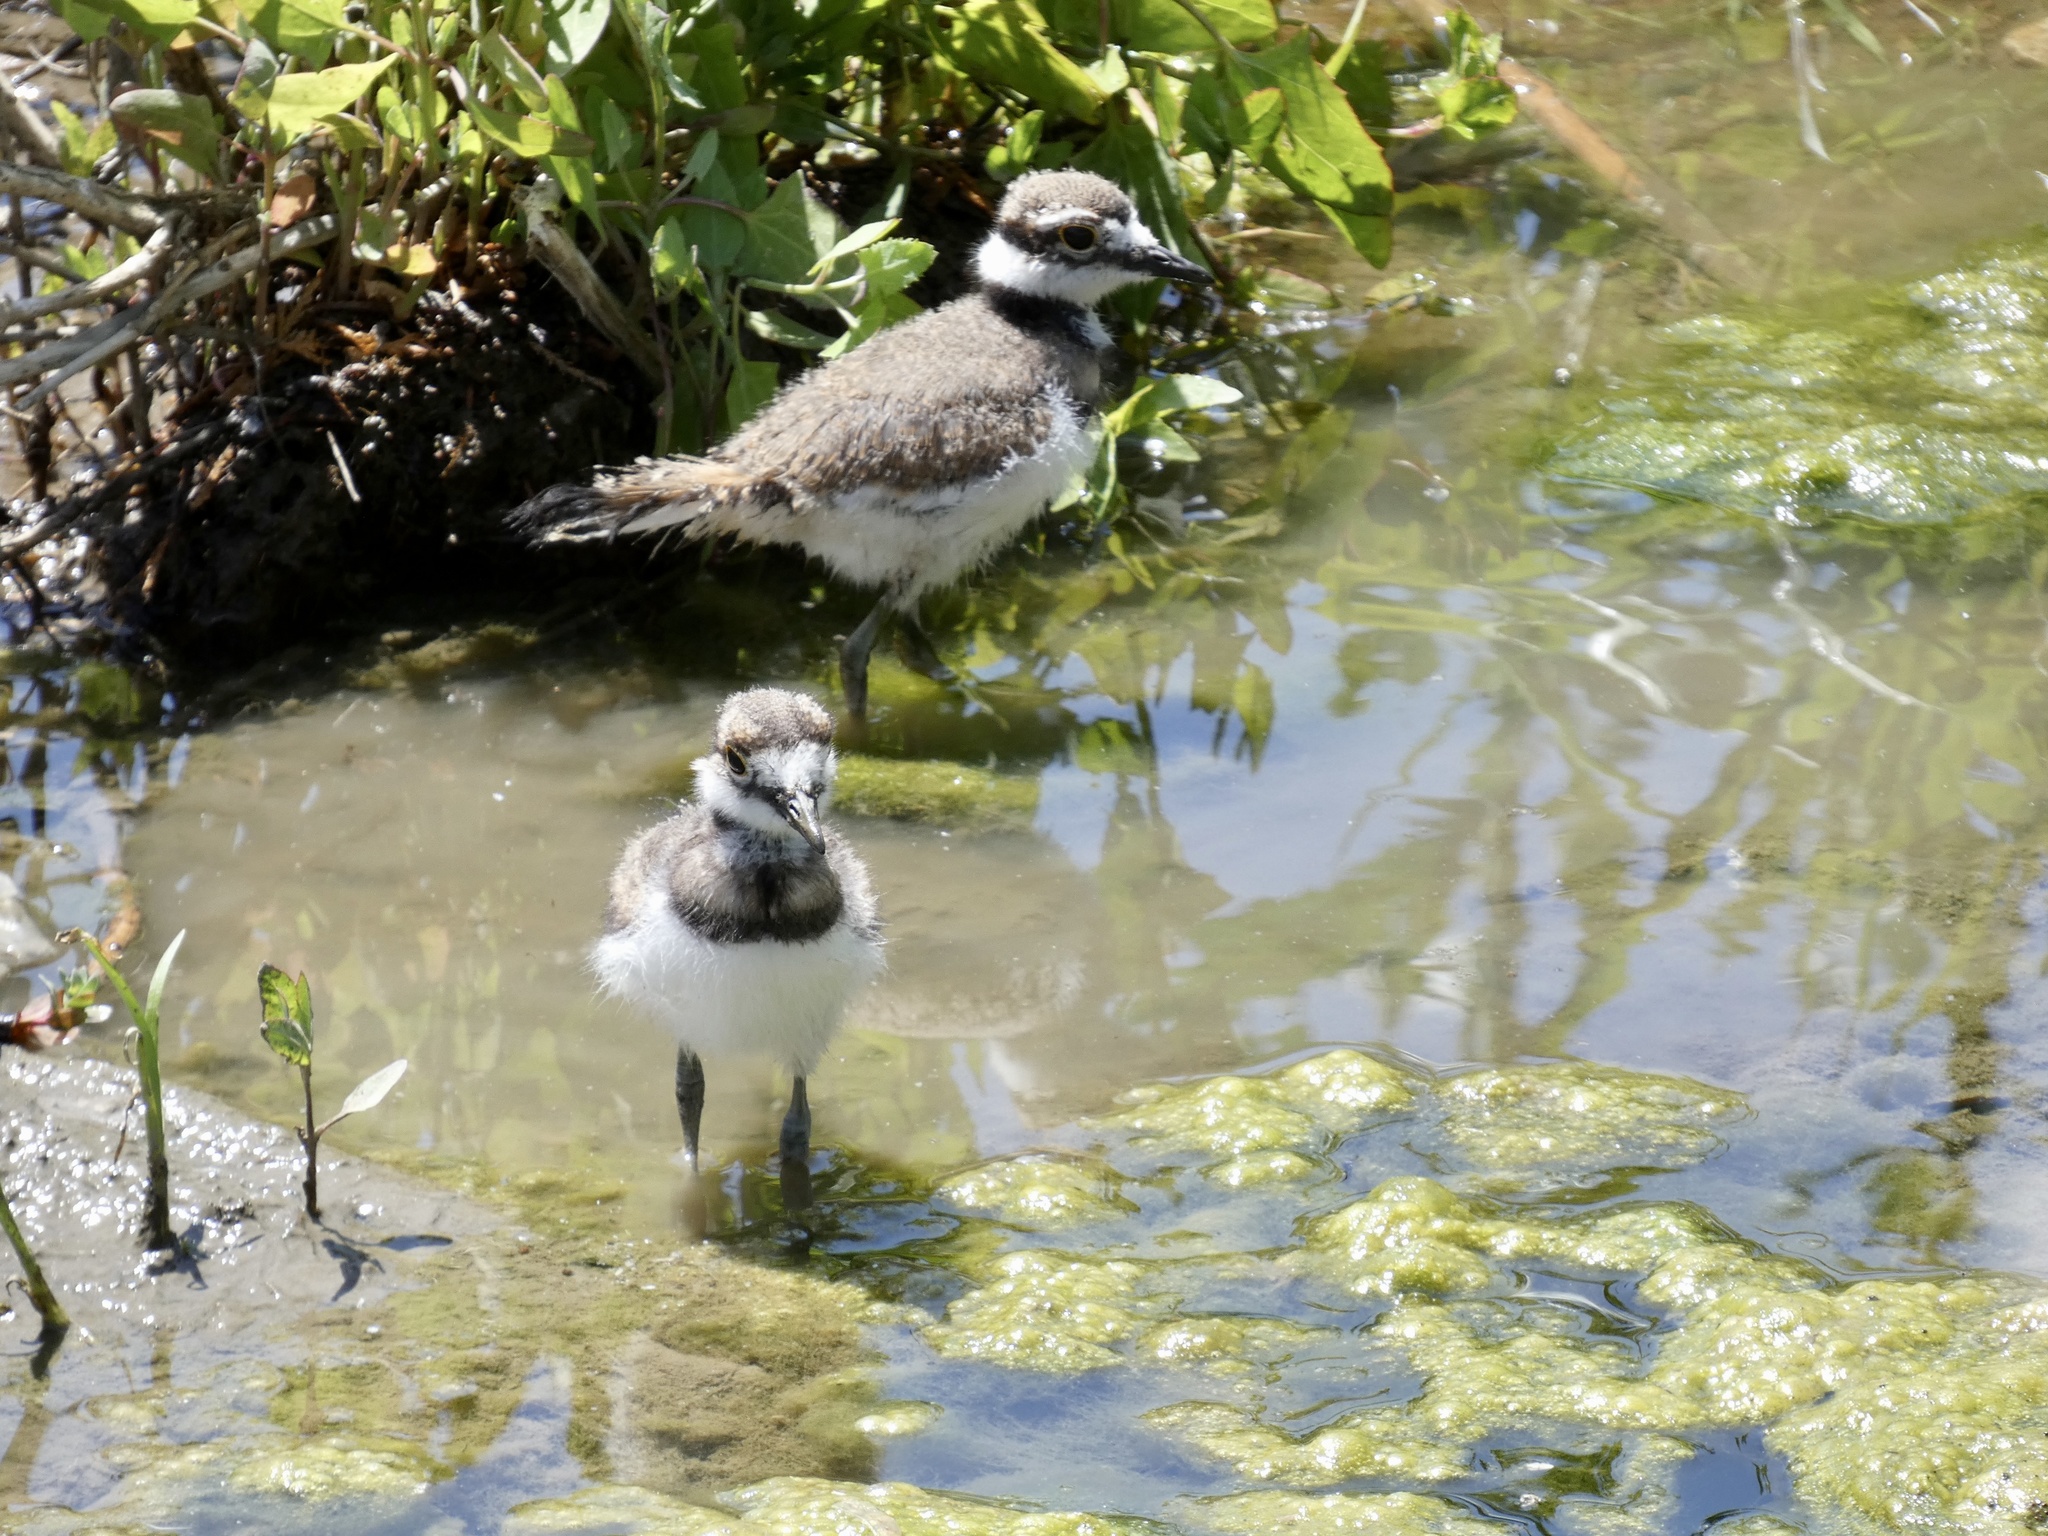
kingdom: Animalia
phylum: Chordata
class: Aves
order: Charadriiformes
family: Charadriidae
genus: Charadrius
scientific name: Charadrius vociferus
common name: Killdeer
